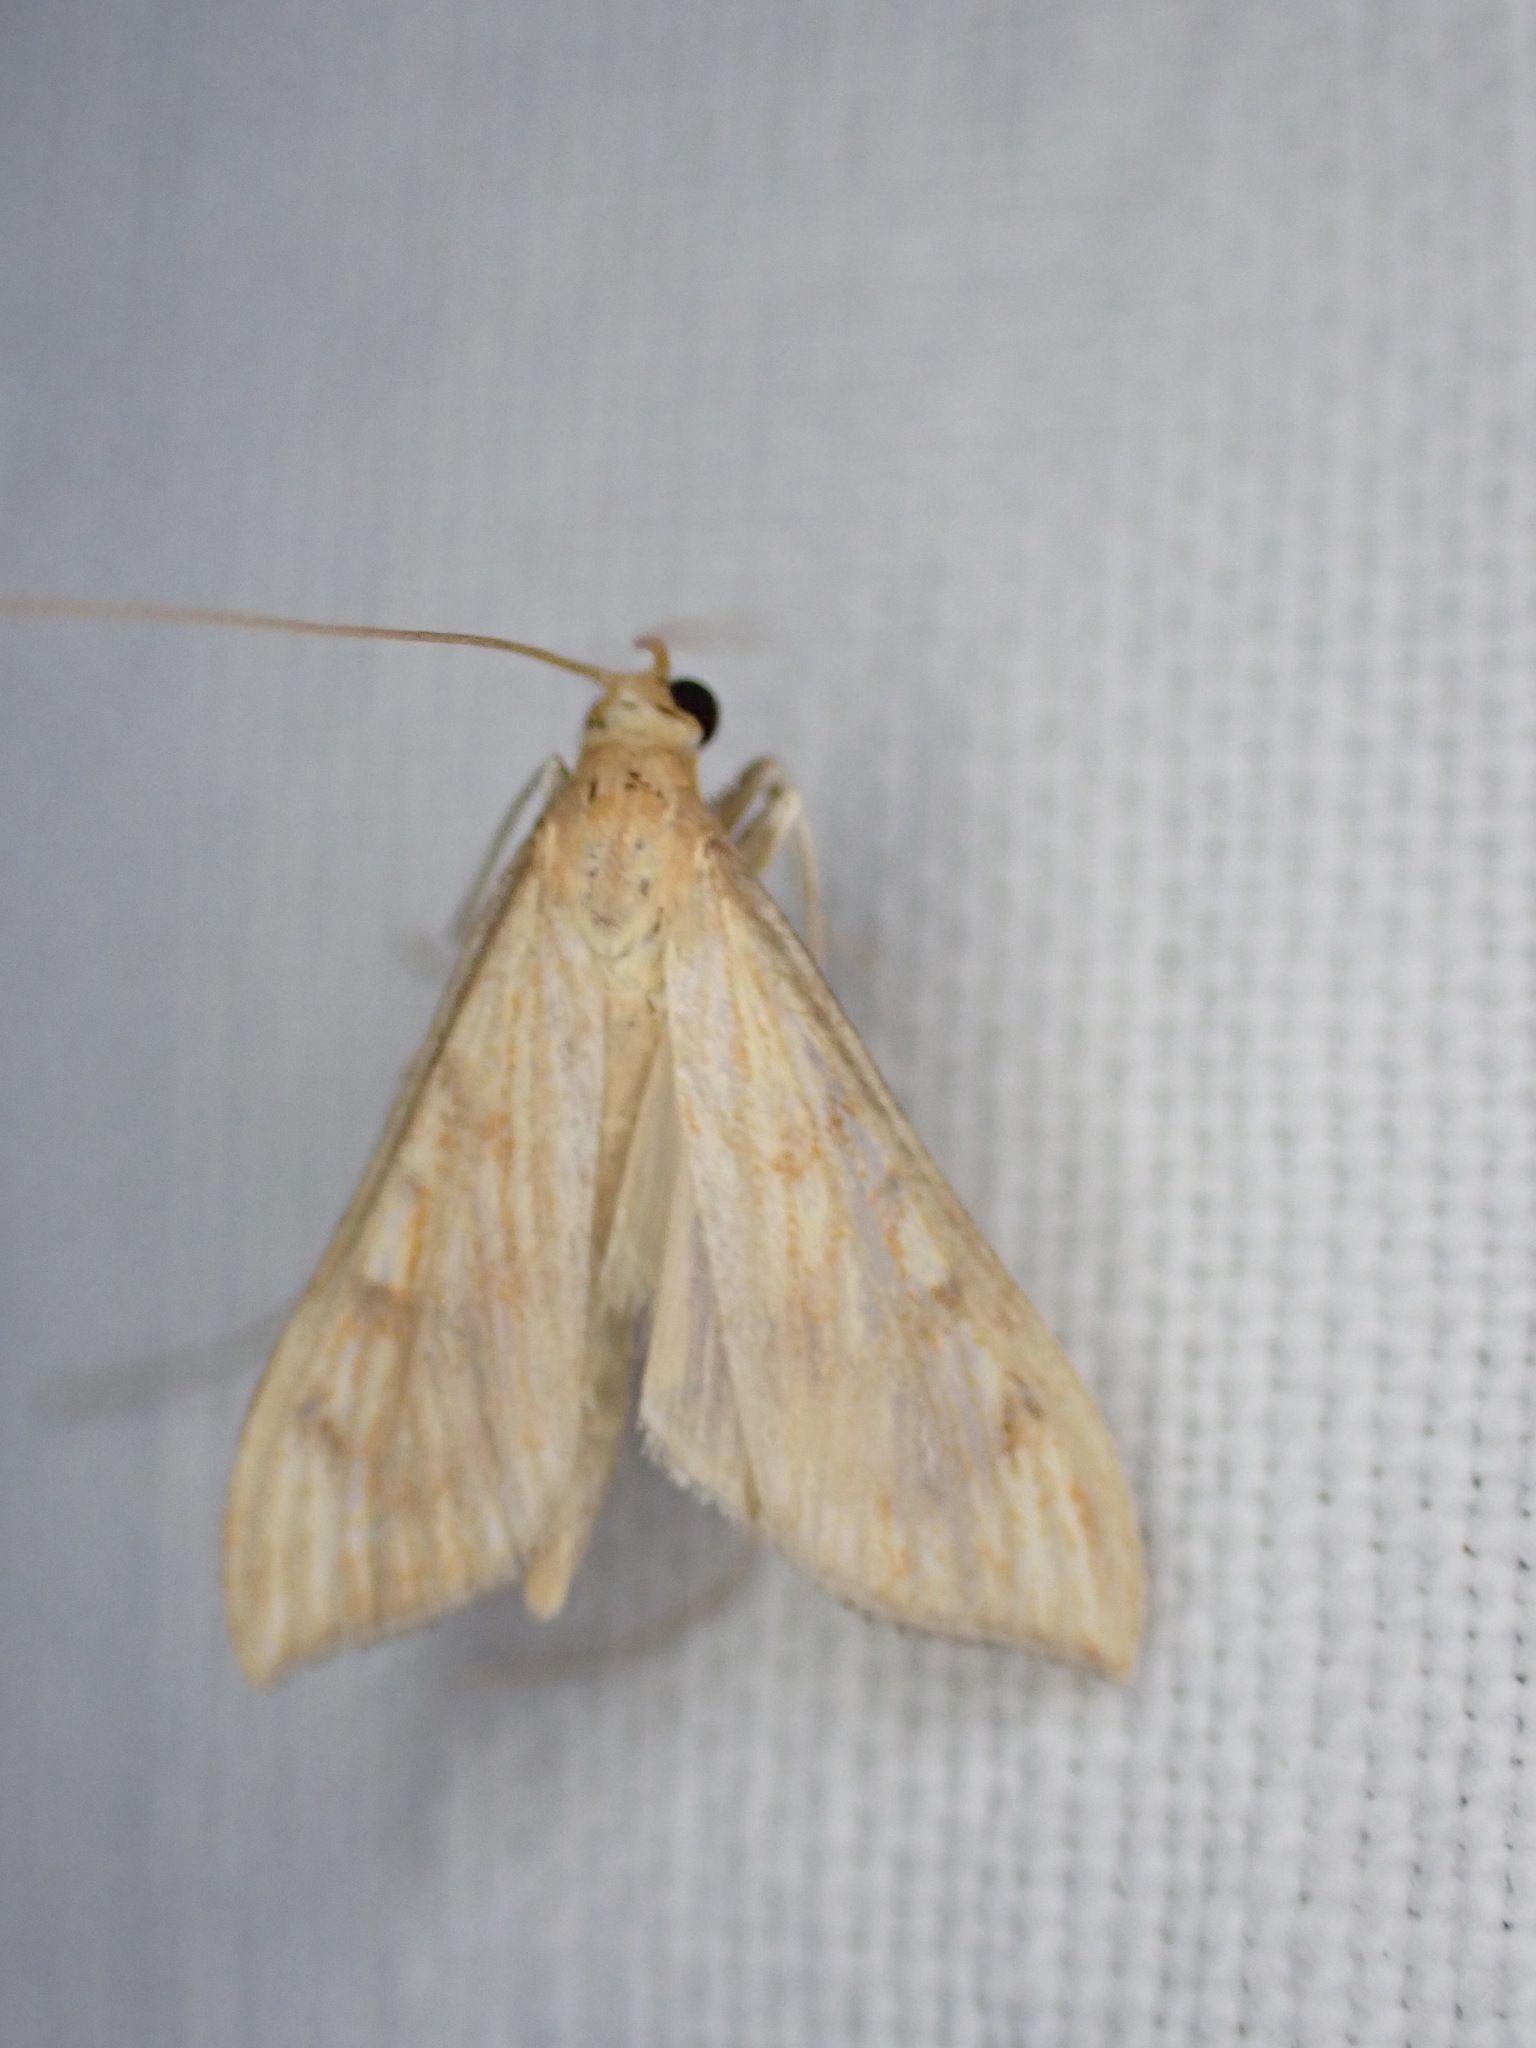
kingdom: Animalia
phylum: Arthropoda
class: Insecta
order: Lepidoptera
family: Crambidae
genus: Antigastra
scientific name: Antigastra catalaunalis
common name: Spanish dot
